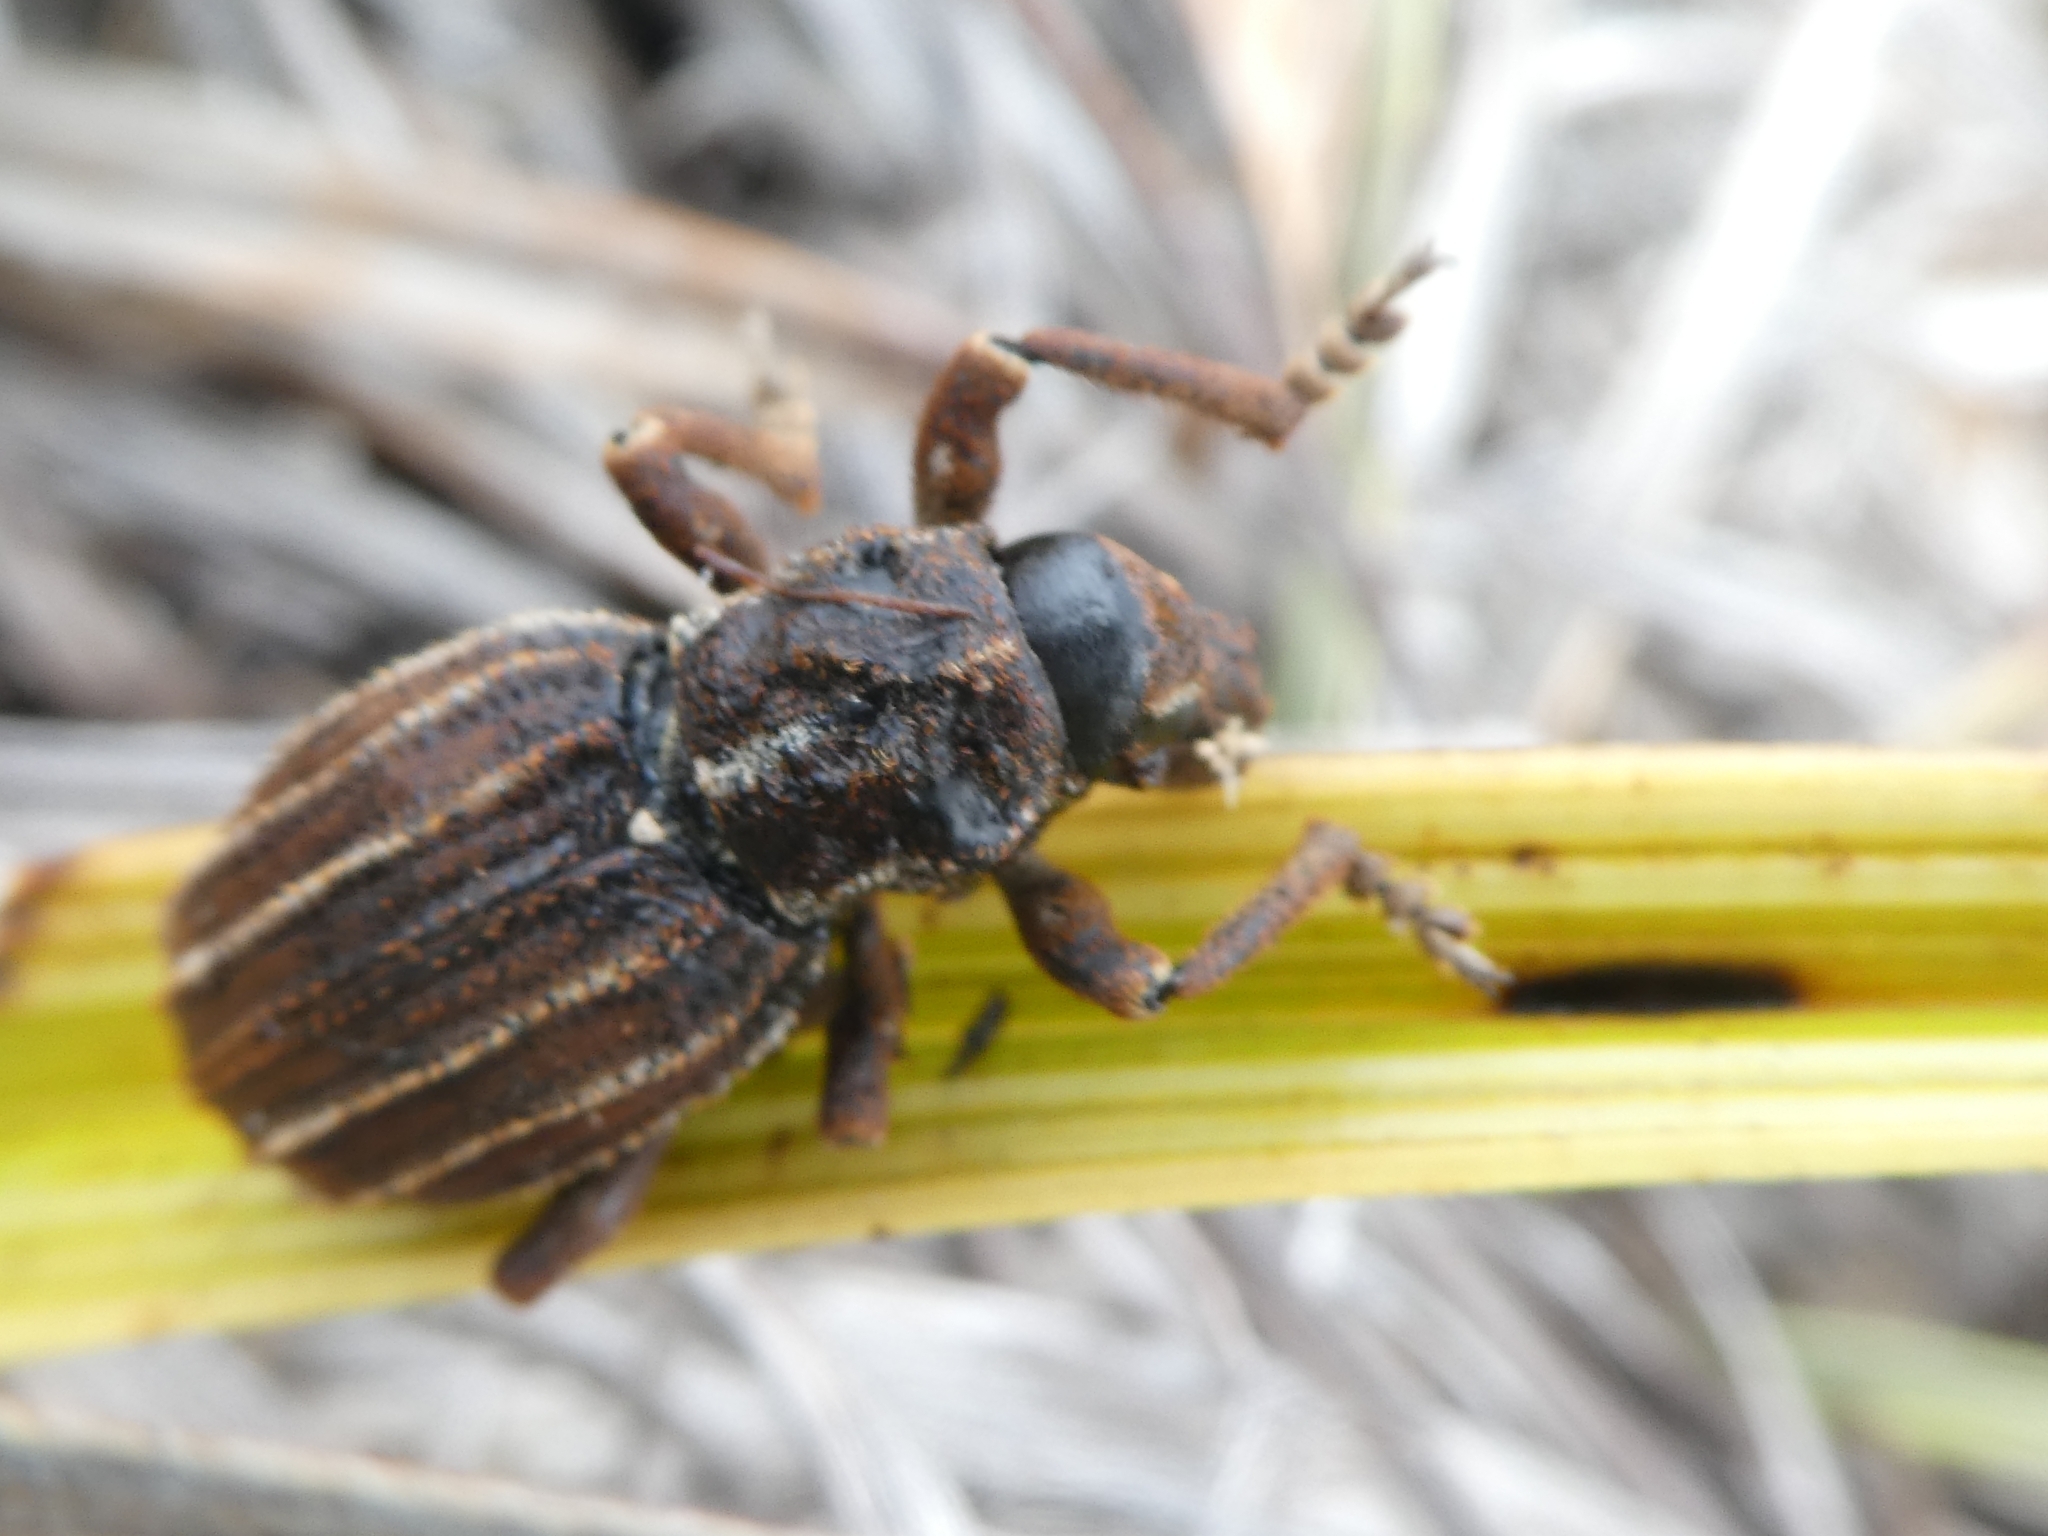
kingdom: Animalia
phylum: Arthropoda
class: Insecta
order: Coleoptera
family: Curculionidae
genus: Anagotus
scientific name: Anagotus
